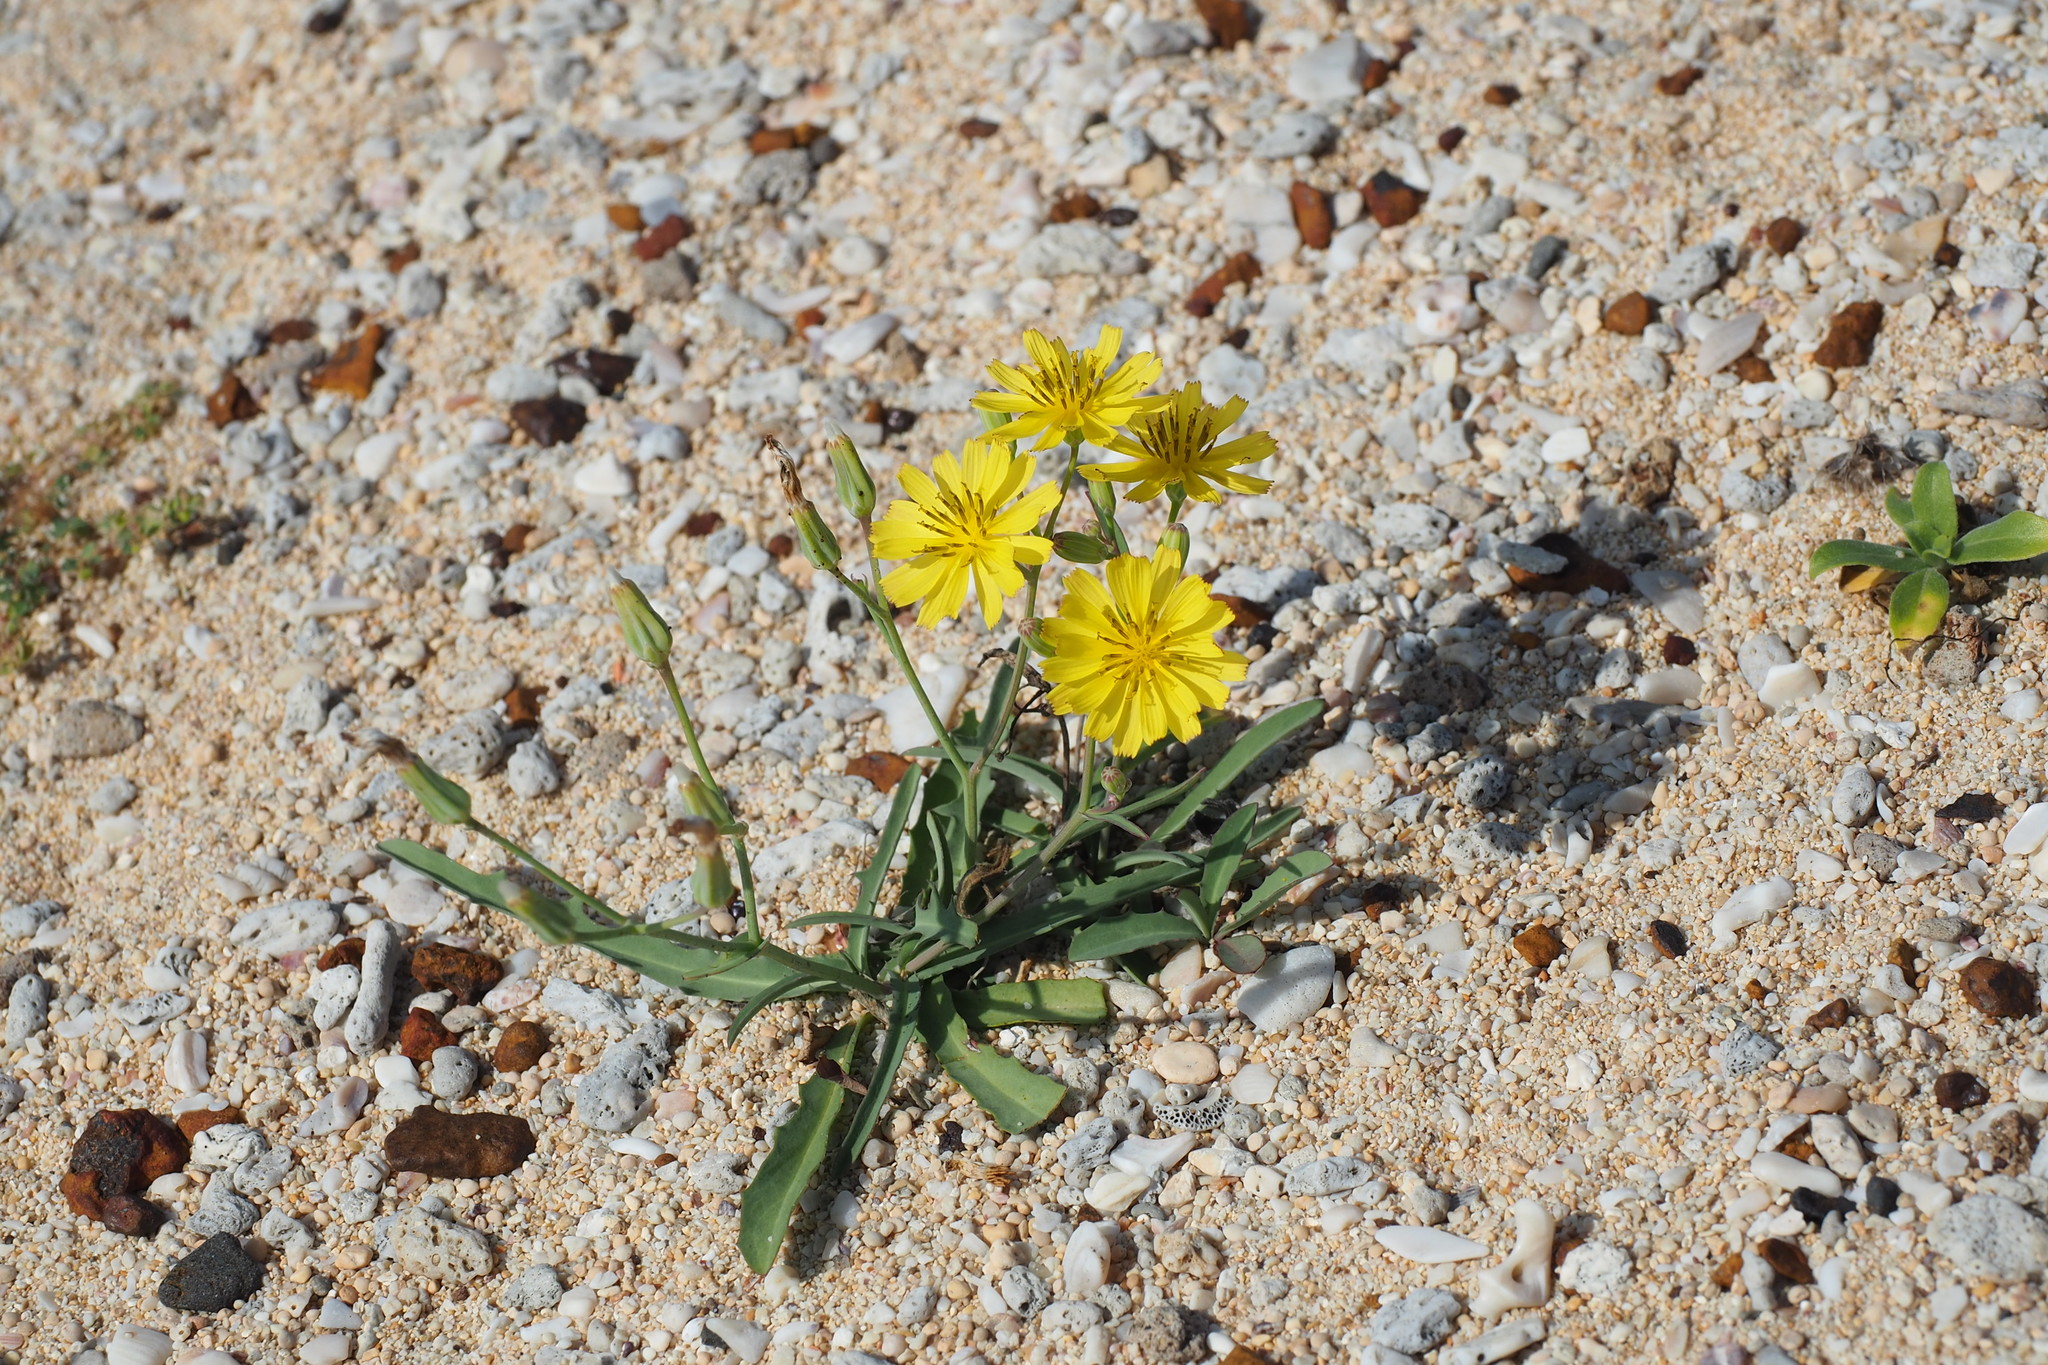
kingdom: Plantae
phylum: Tracheophyta
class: Magnoliopsida
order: Asterales
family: Asteraceae
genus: Ixeris
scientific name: Ixeris japonica
